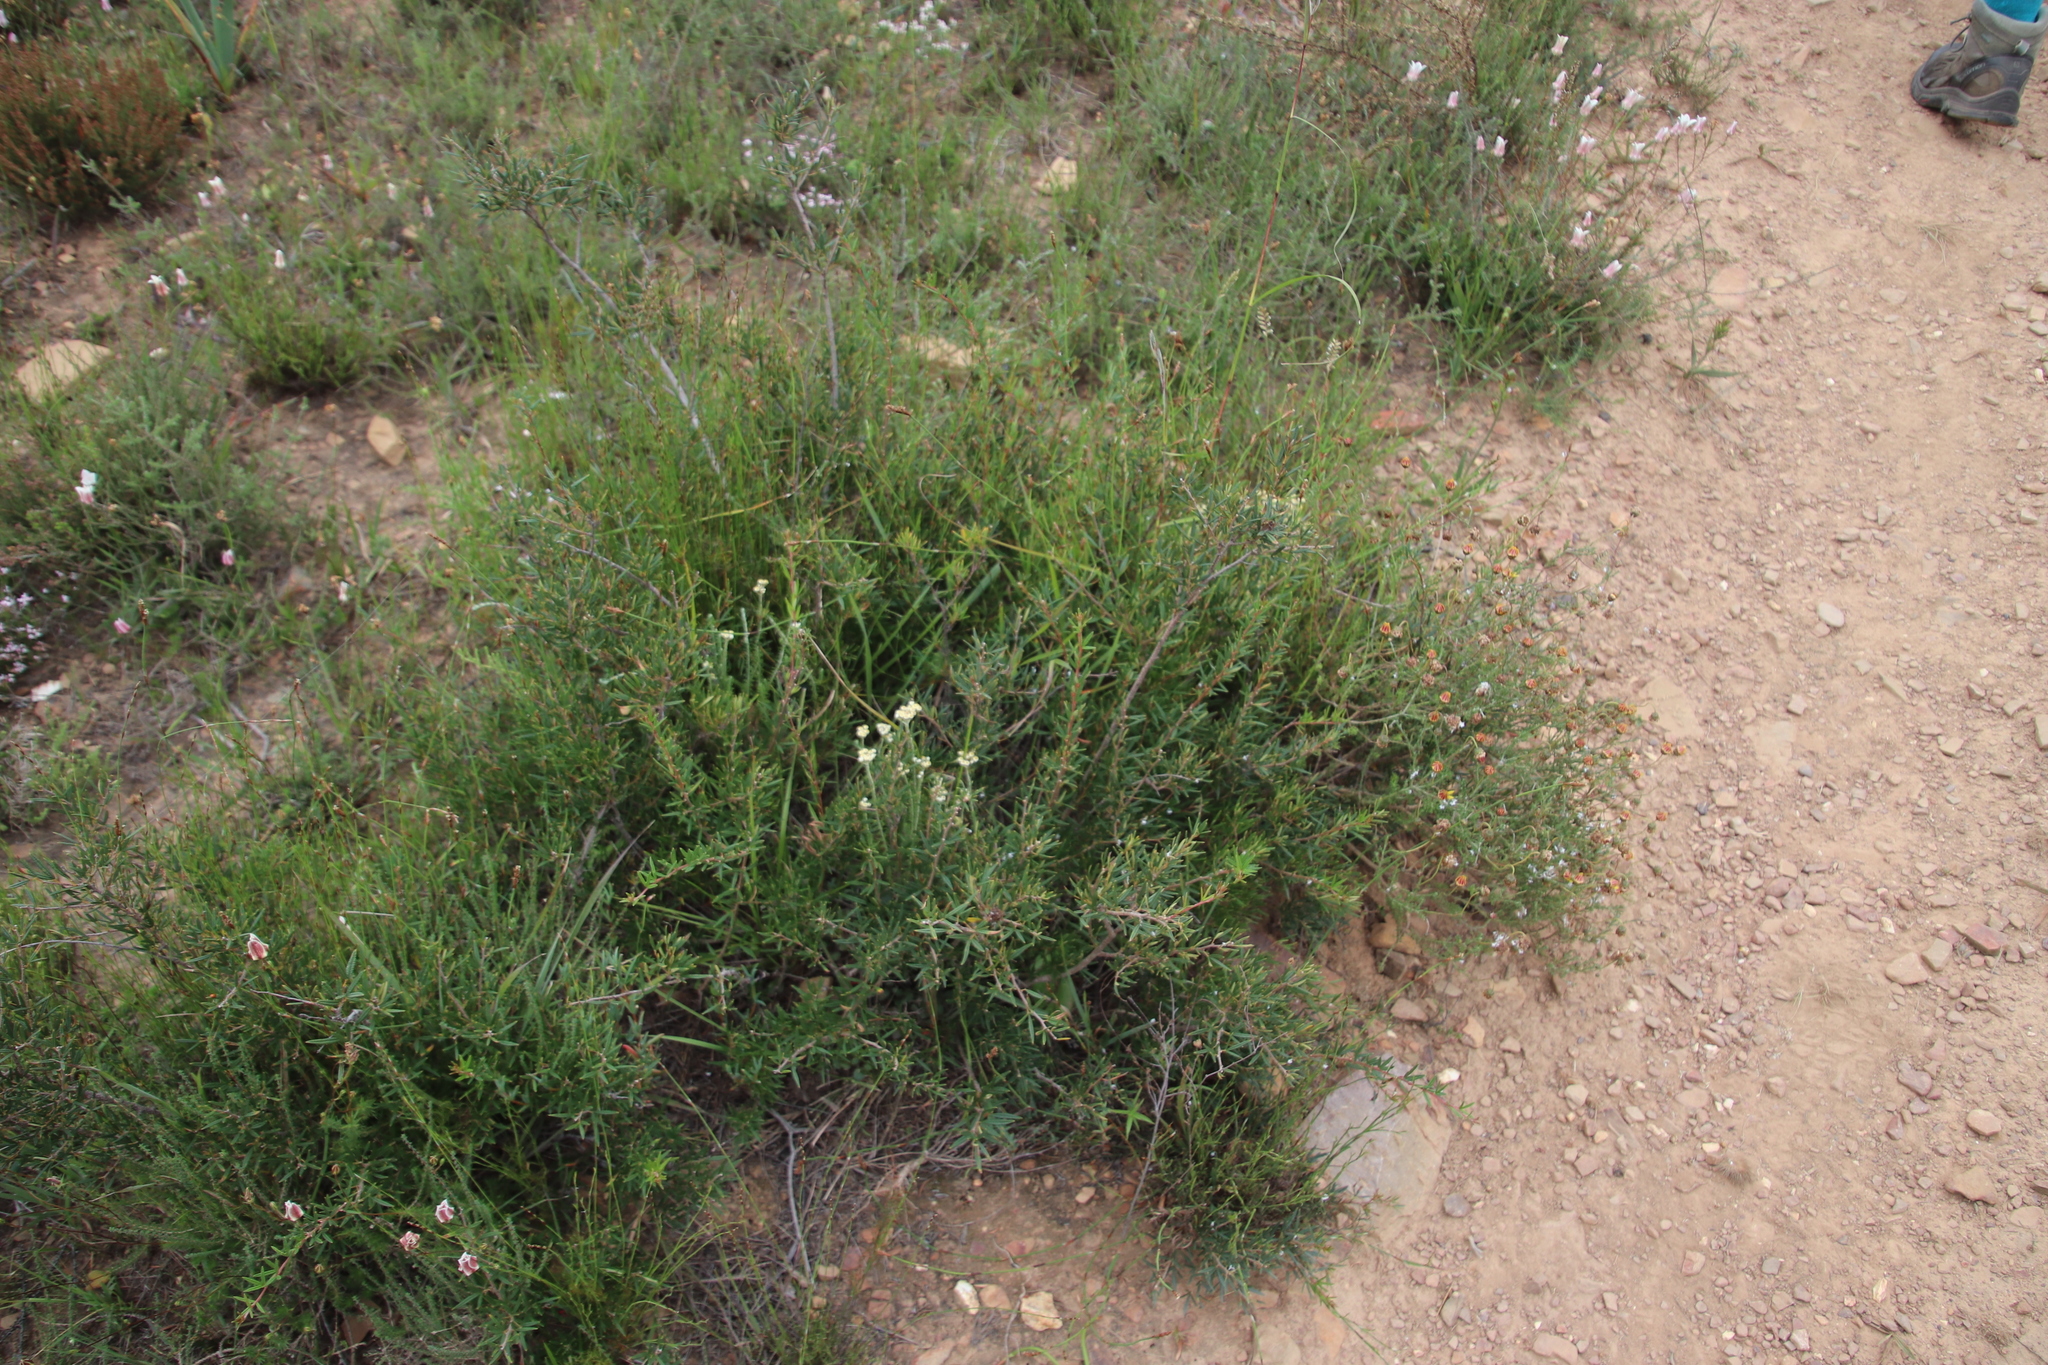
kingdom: Plantae
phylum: Tracheophyta
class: Magnoliopsida
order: Sapindales
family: Anacardiaceae
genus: Searsia
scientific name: Searsia rosmarinifolia
